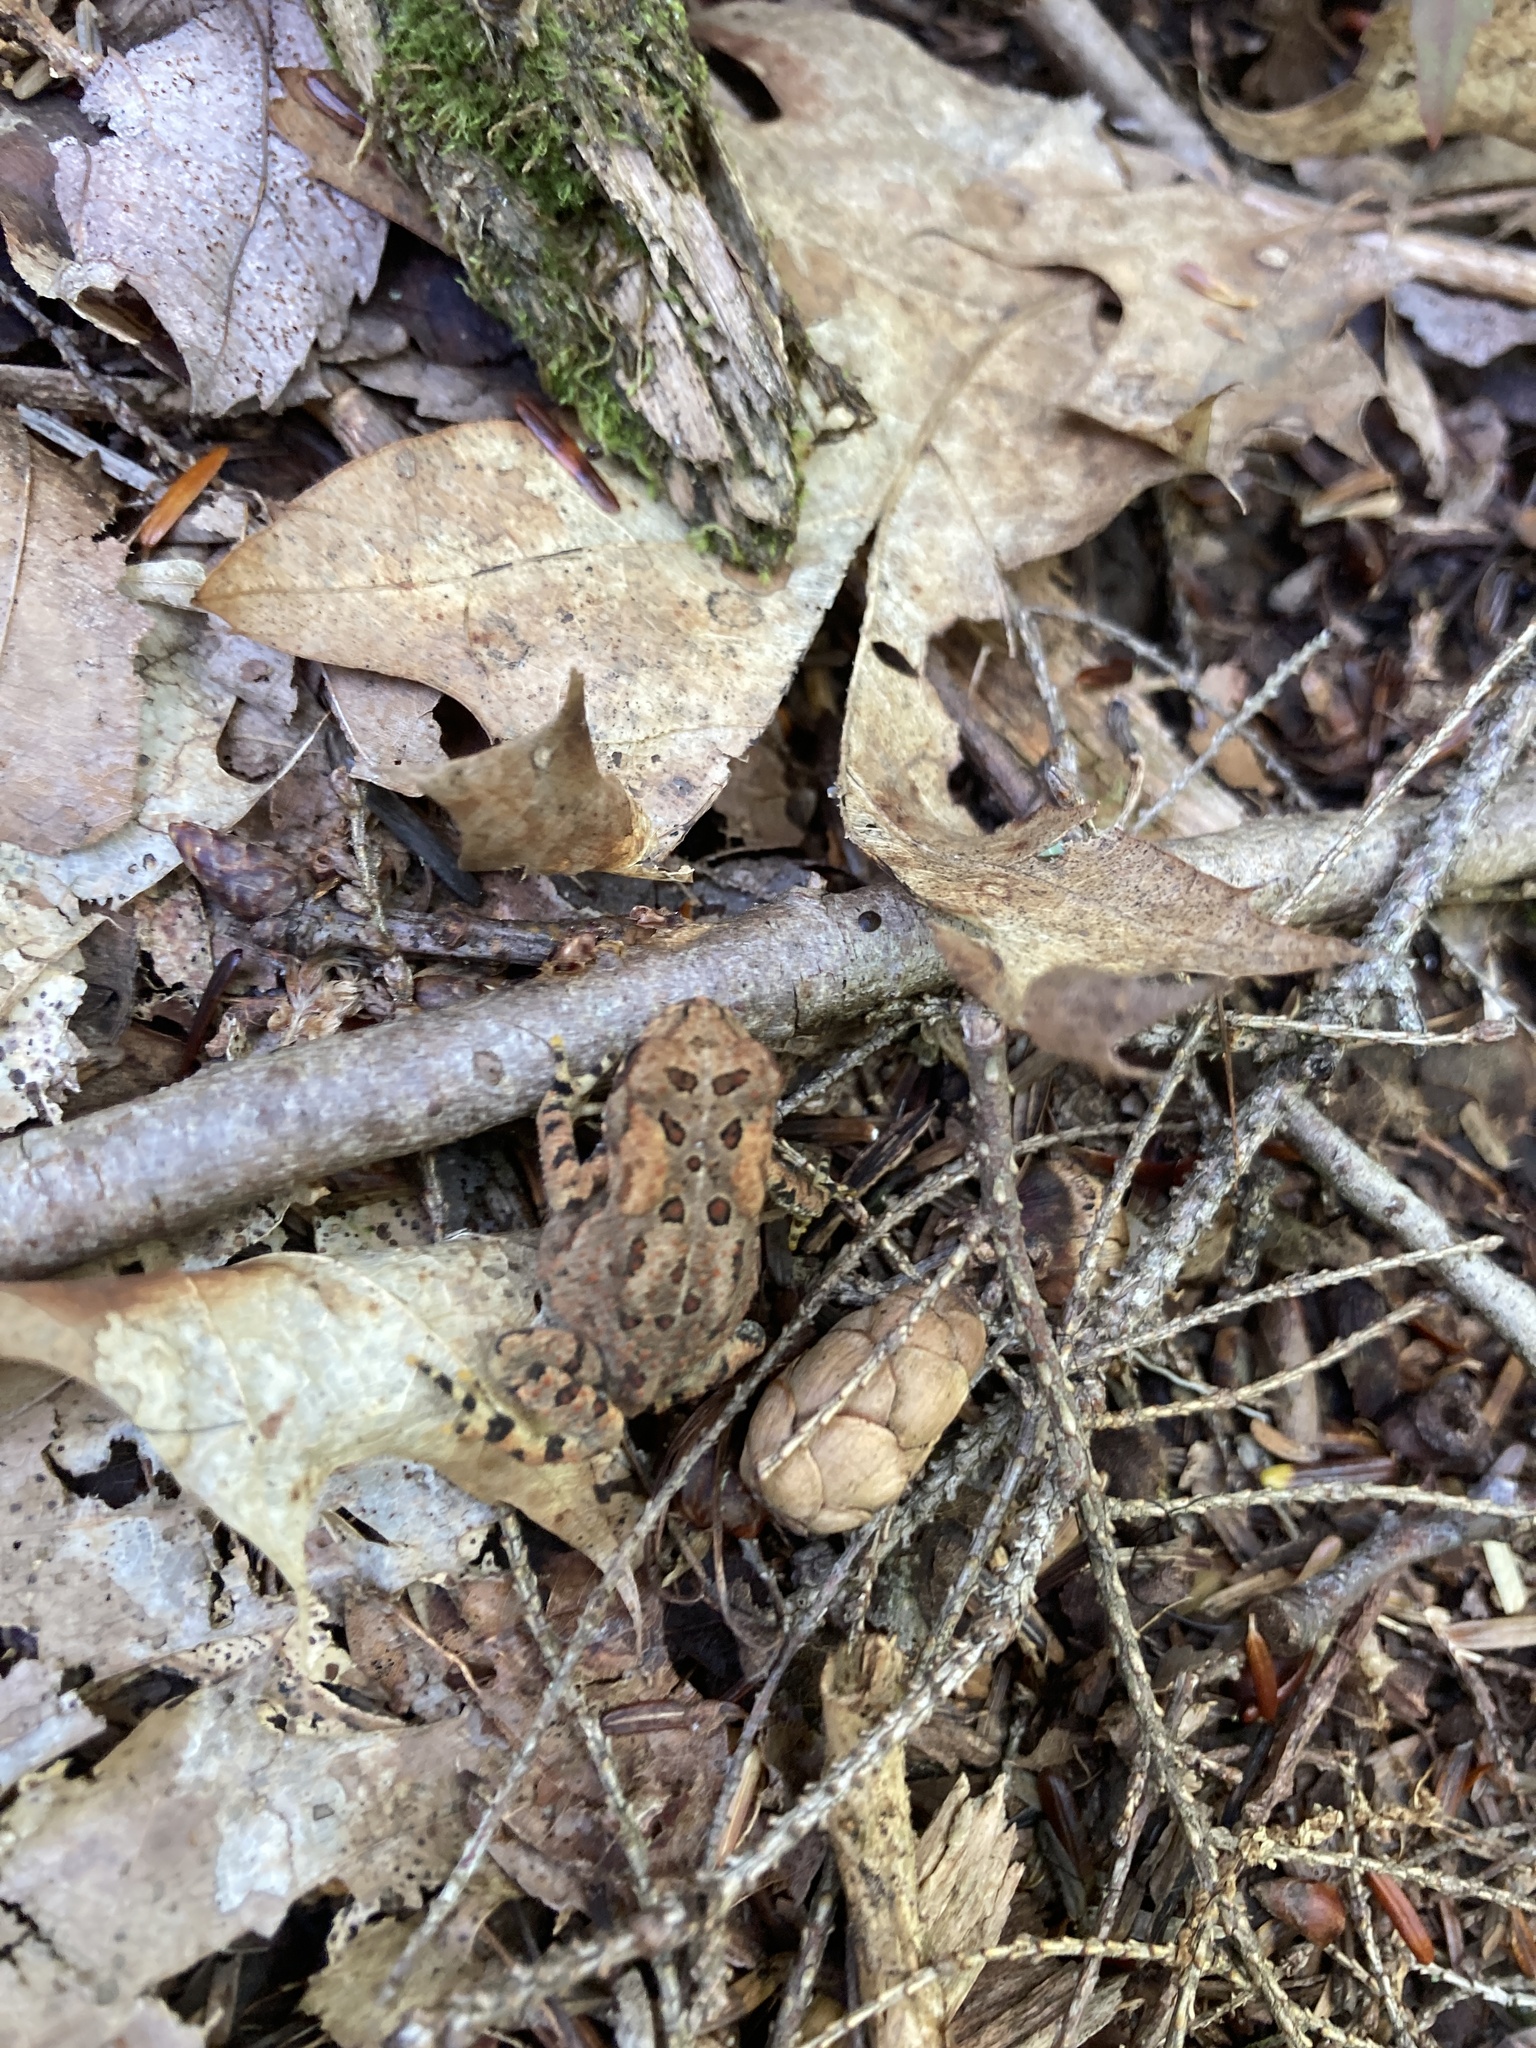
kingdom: Animalia
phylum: Chordata
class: Amphibia
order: Anura
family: Bufonidae
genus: Anaxyrus
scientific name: Anaxyrus americanus
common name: American toad
